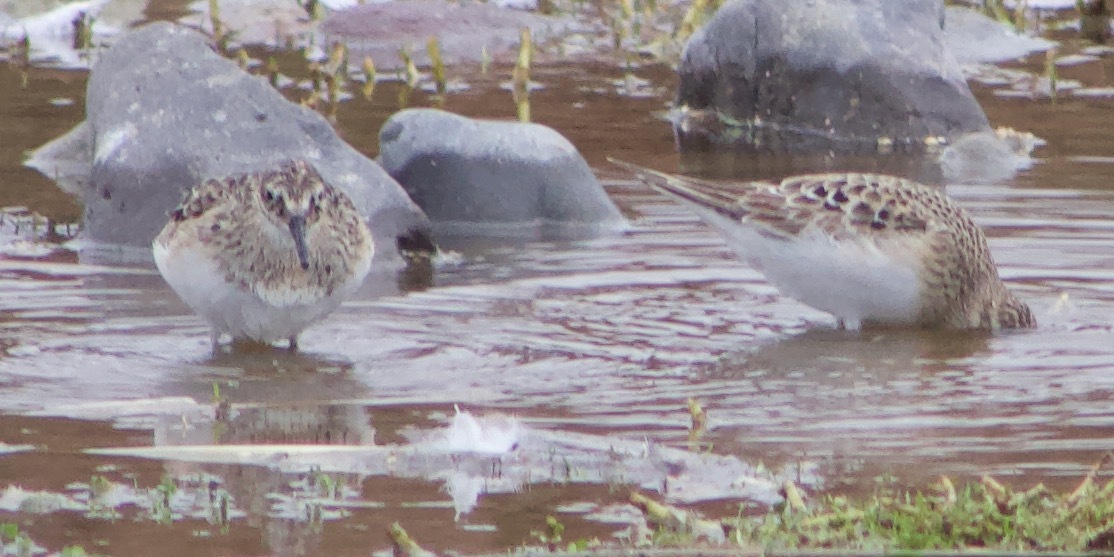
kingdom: Animalia
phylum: Chordata
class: Aves
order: Charadriiformes
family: Scolopacidae
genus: Calidris
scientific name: Calidris bairdii
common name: Baird's sandpiper
